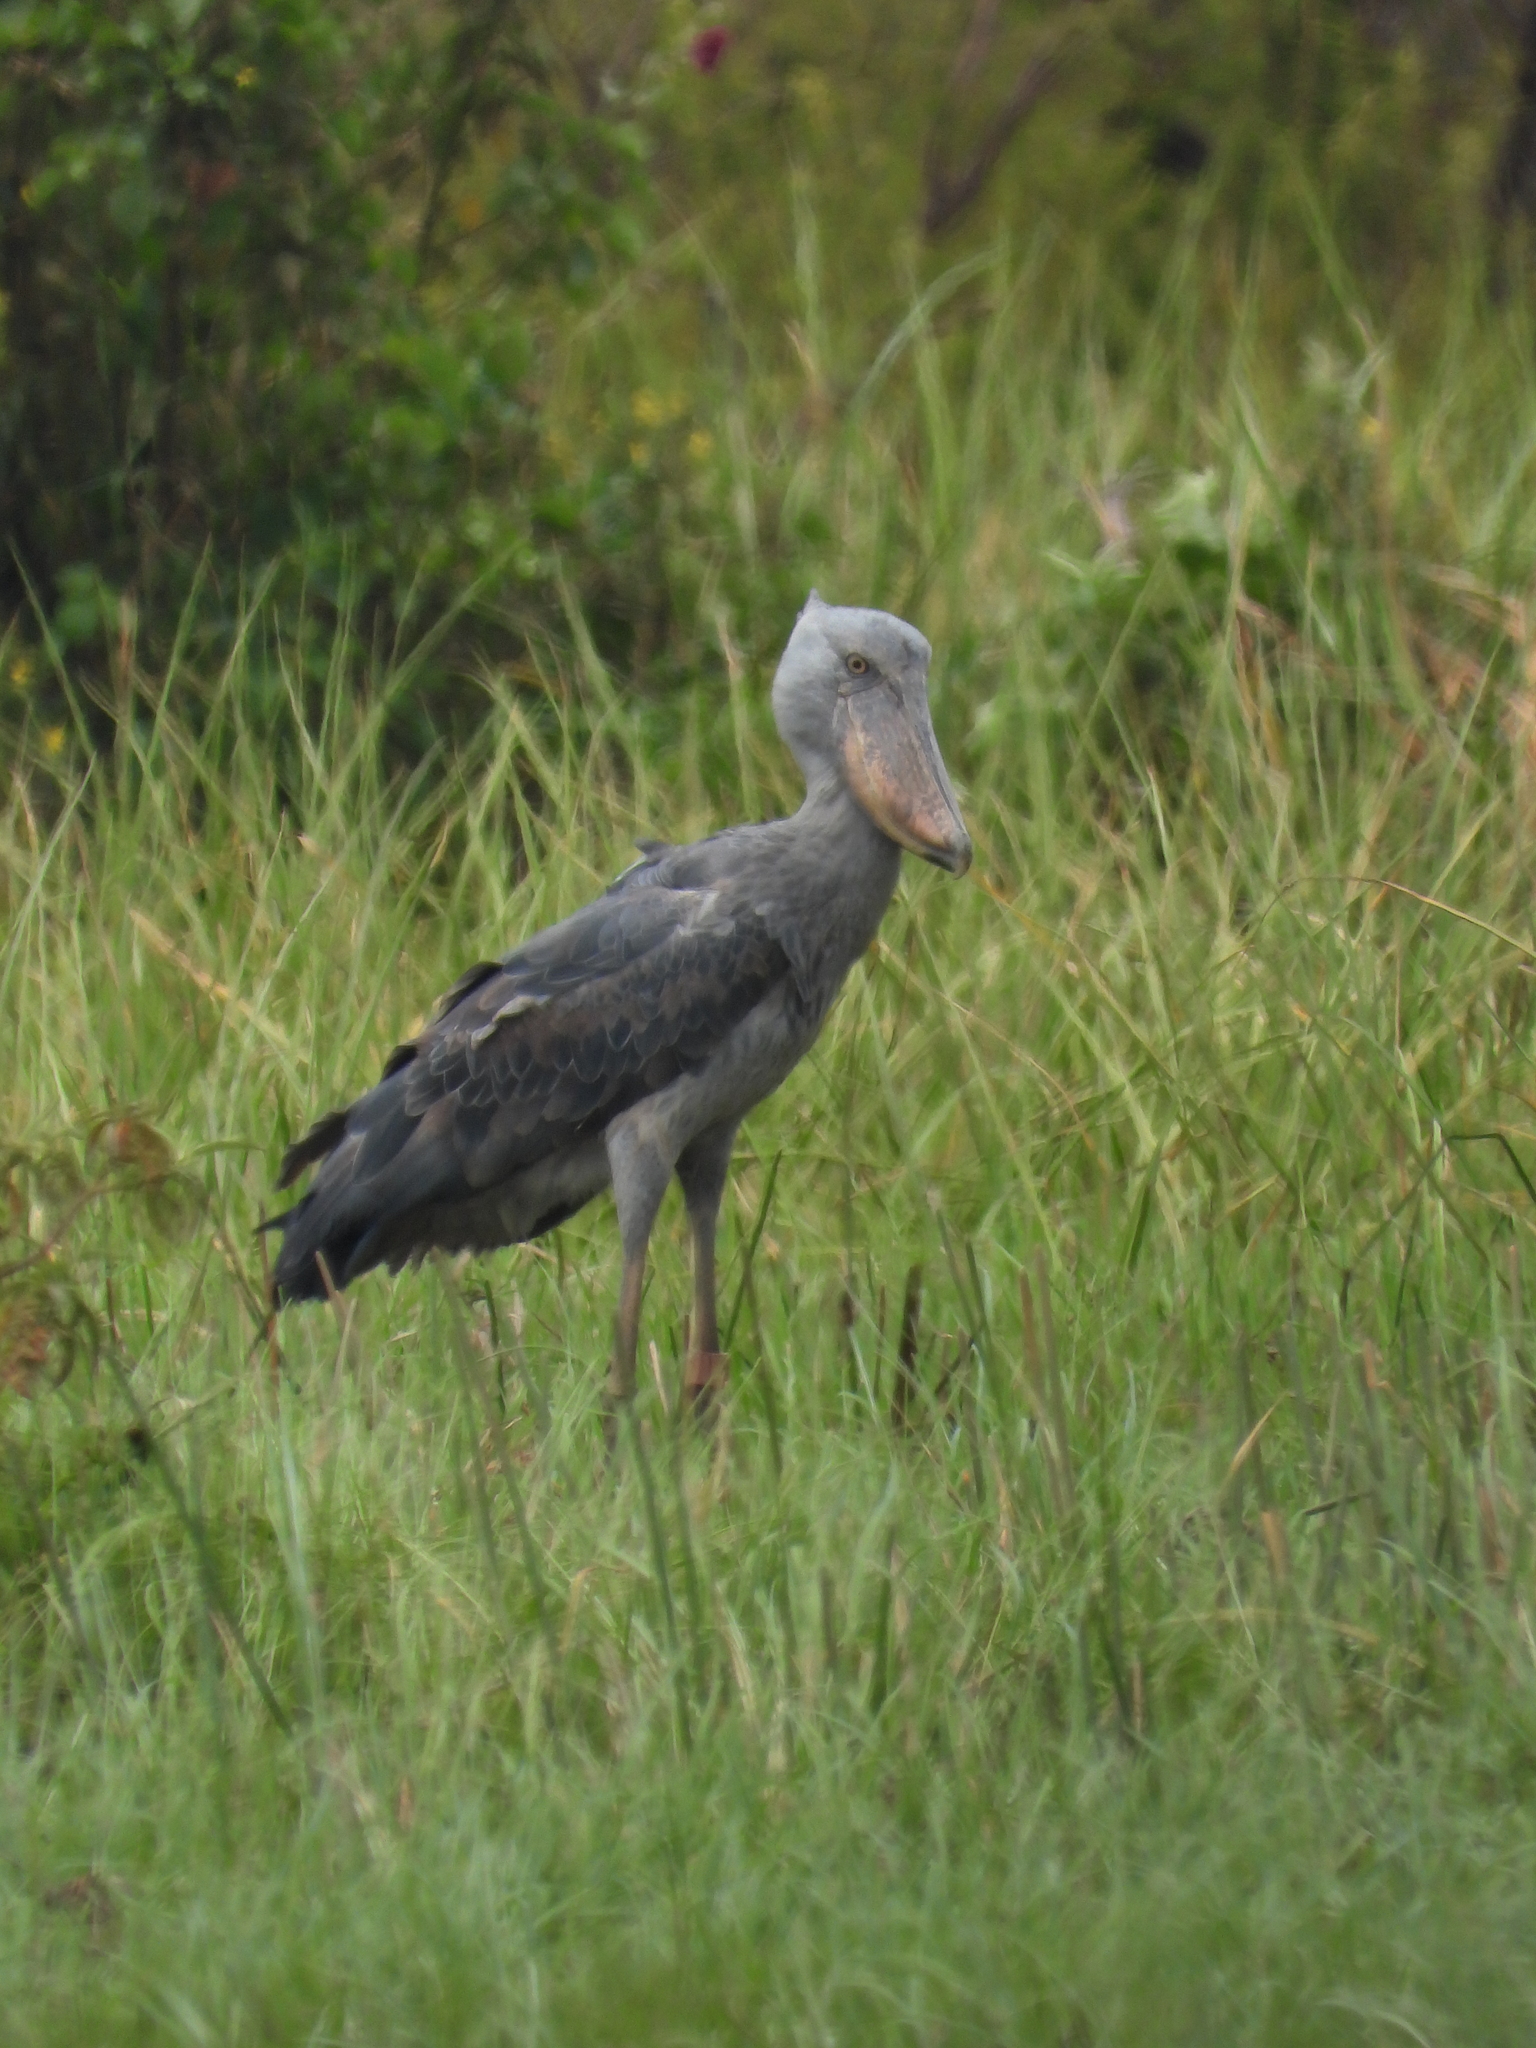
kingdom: Animalia
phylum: Chordata
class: Aves
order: Pelecaniformes
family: Balaenicipitidae
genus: Balaeniceps
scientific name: Balaeniceps rex
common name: Shoebill
